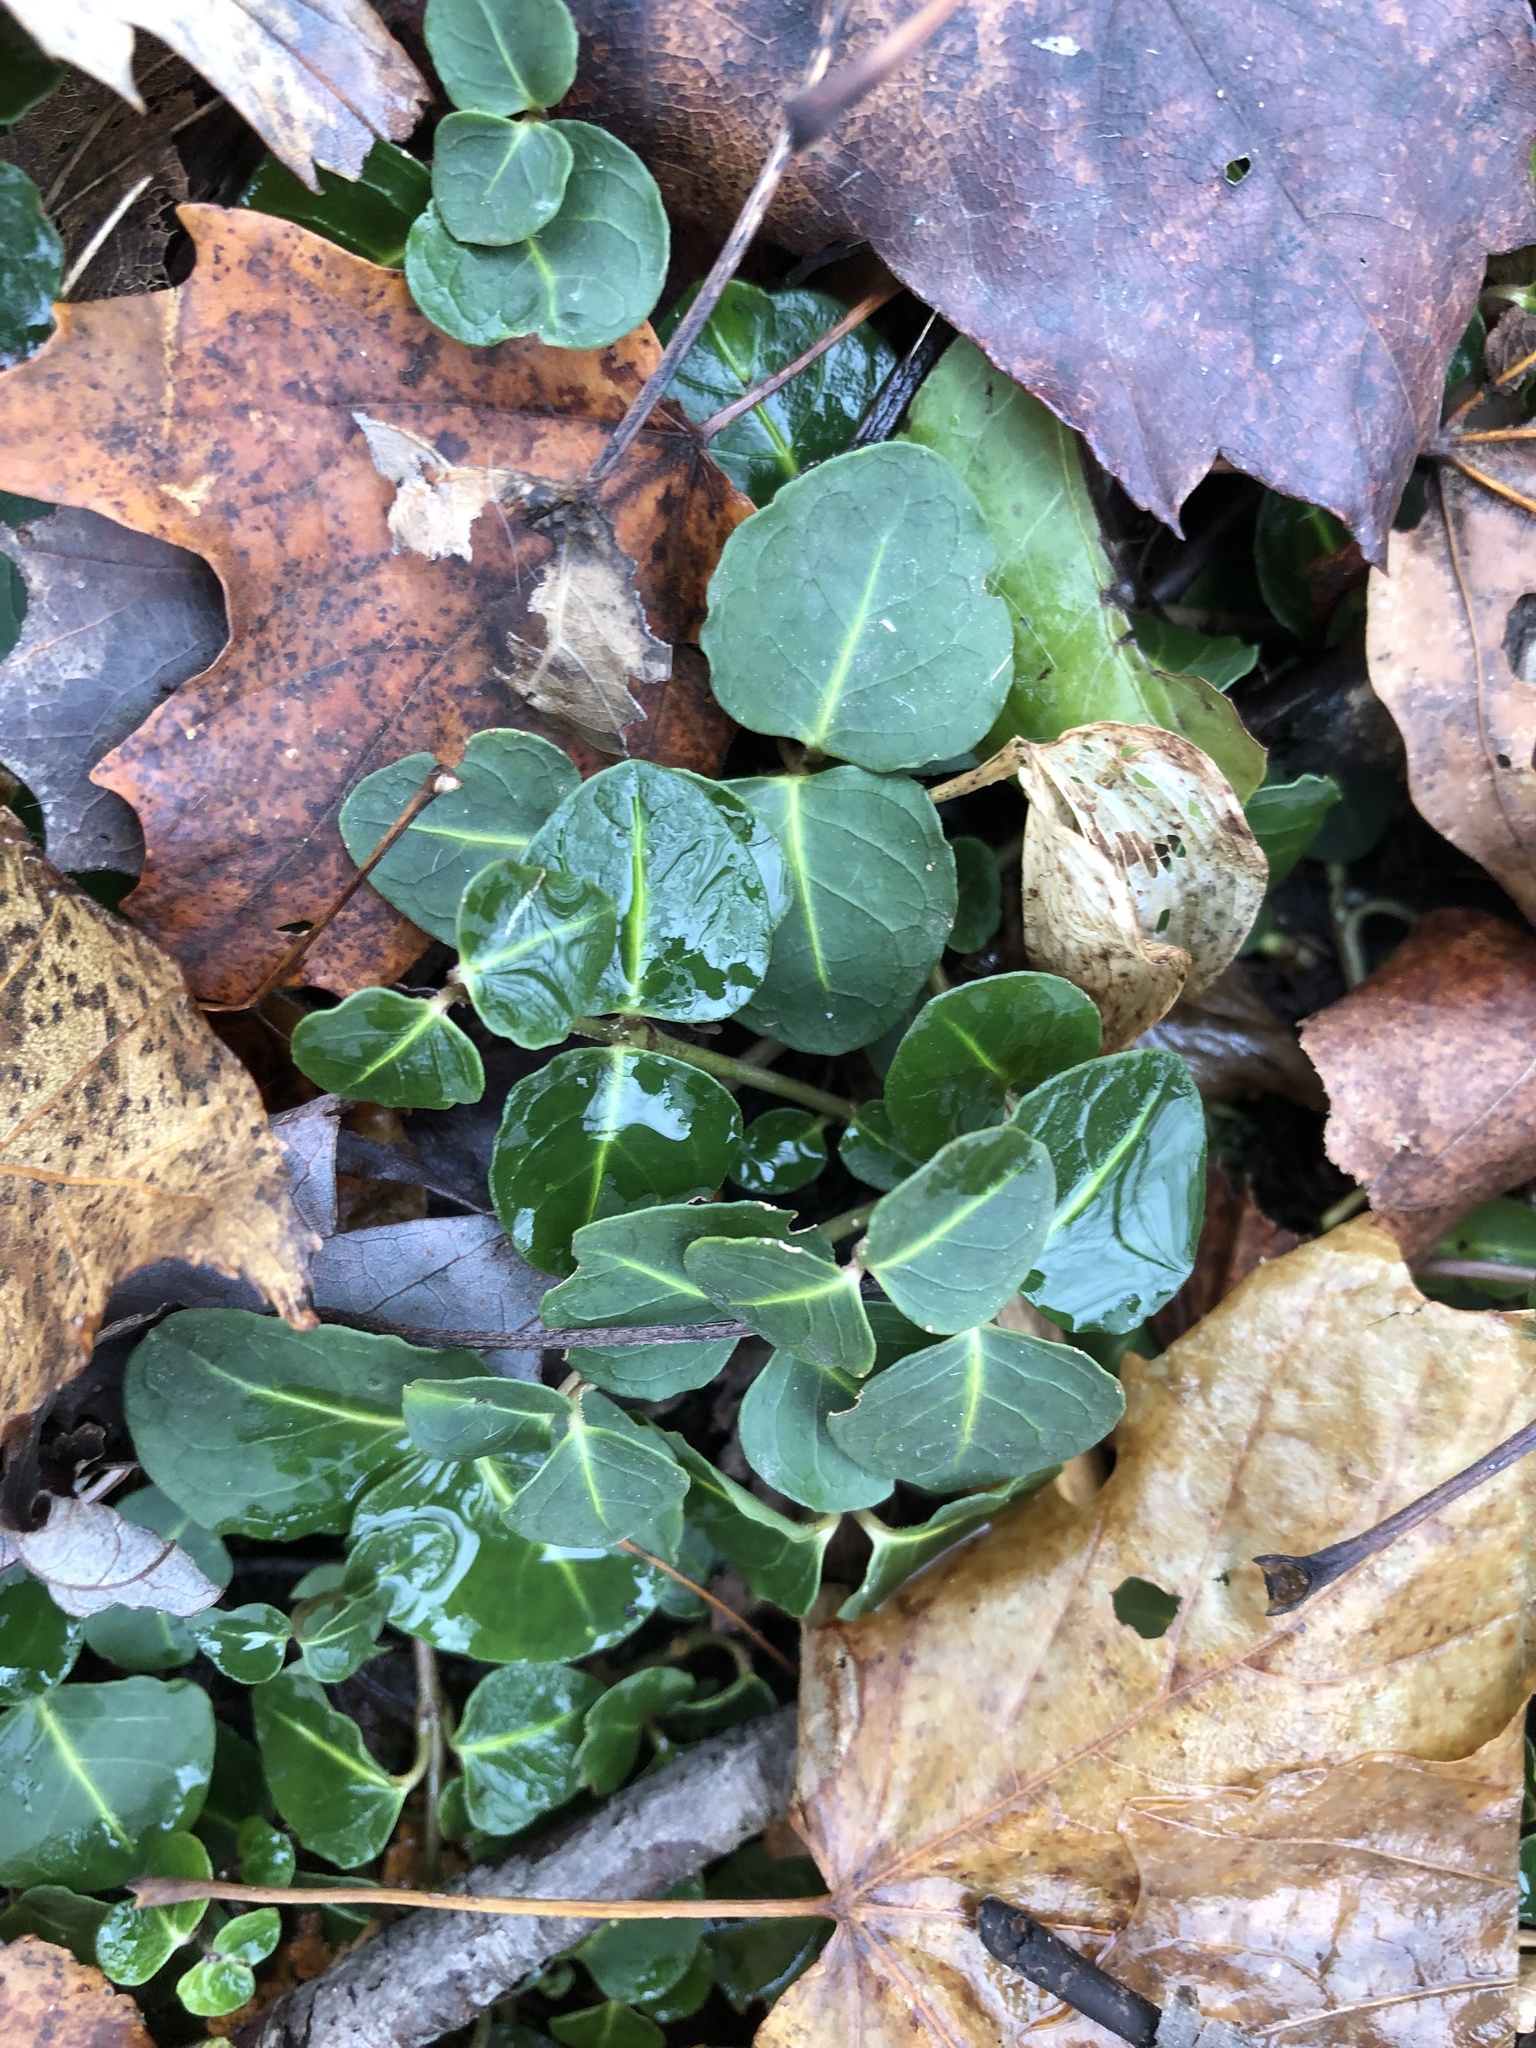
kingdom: Plantae
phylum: Tracheophyta
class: Magnoliopsida
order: Gentianales
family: Rubiaceae
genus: Mitchella
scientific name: Mitchella repens
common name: Partridge-berry
